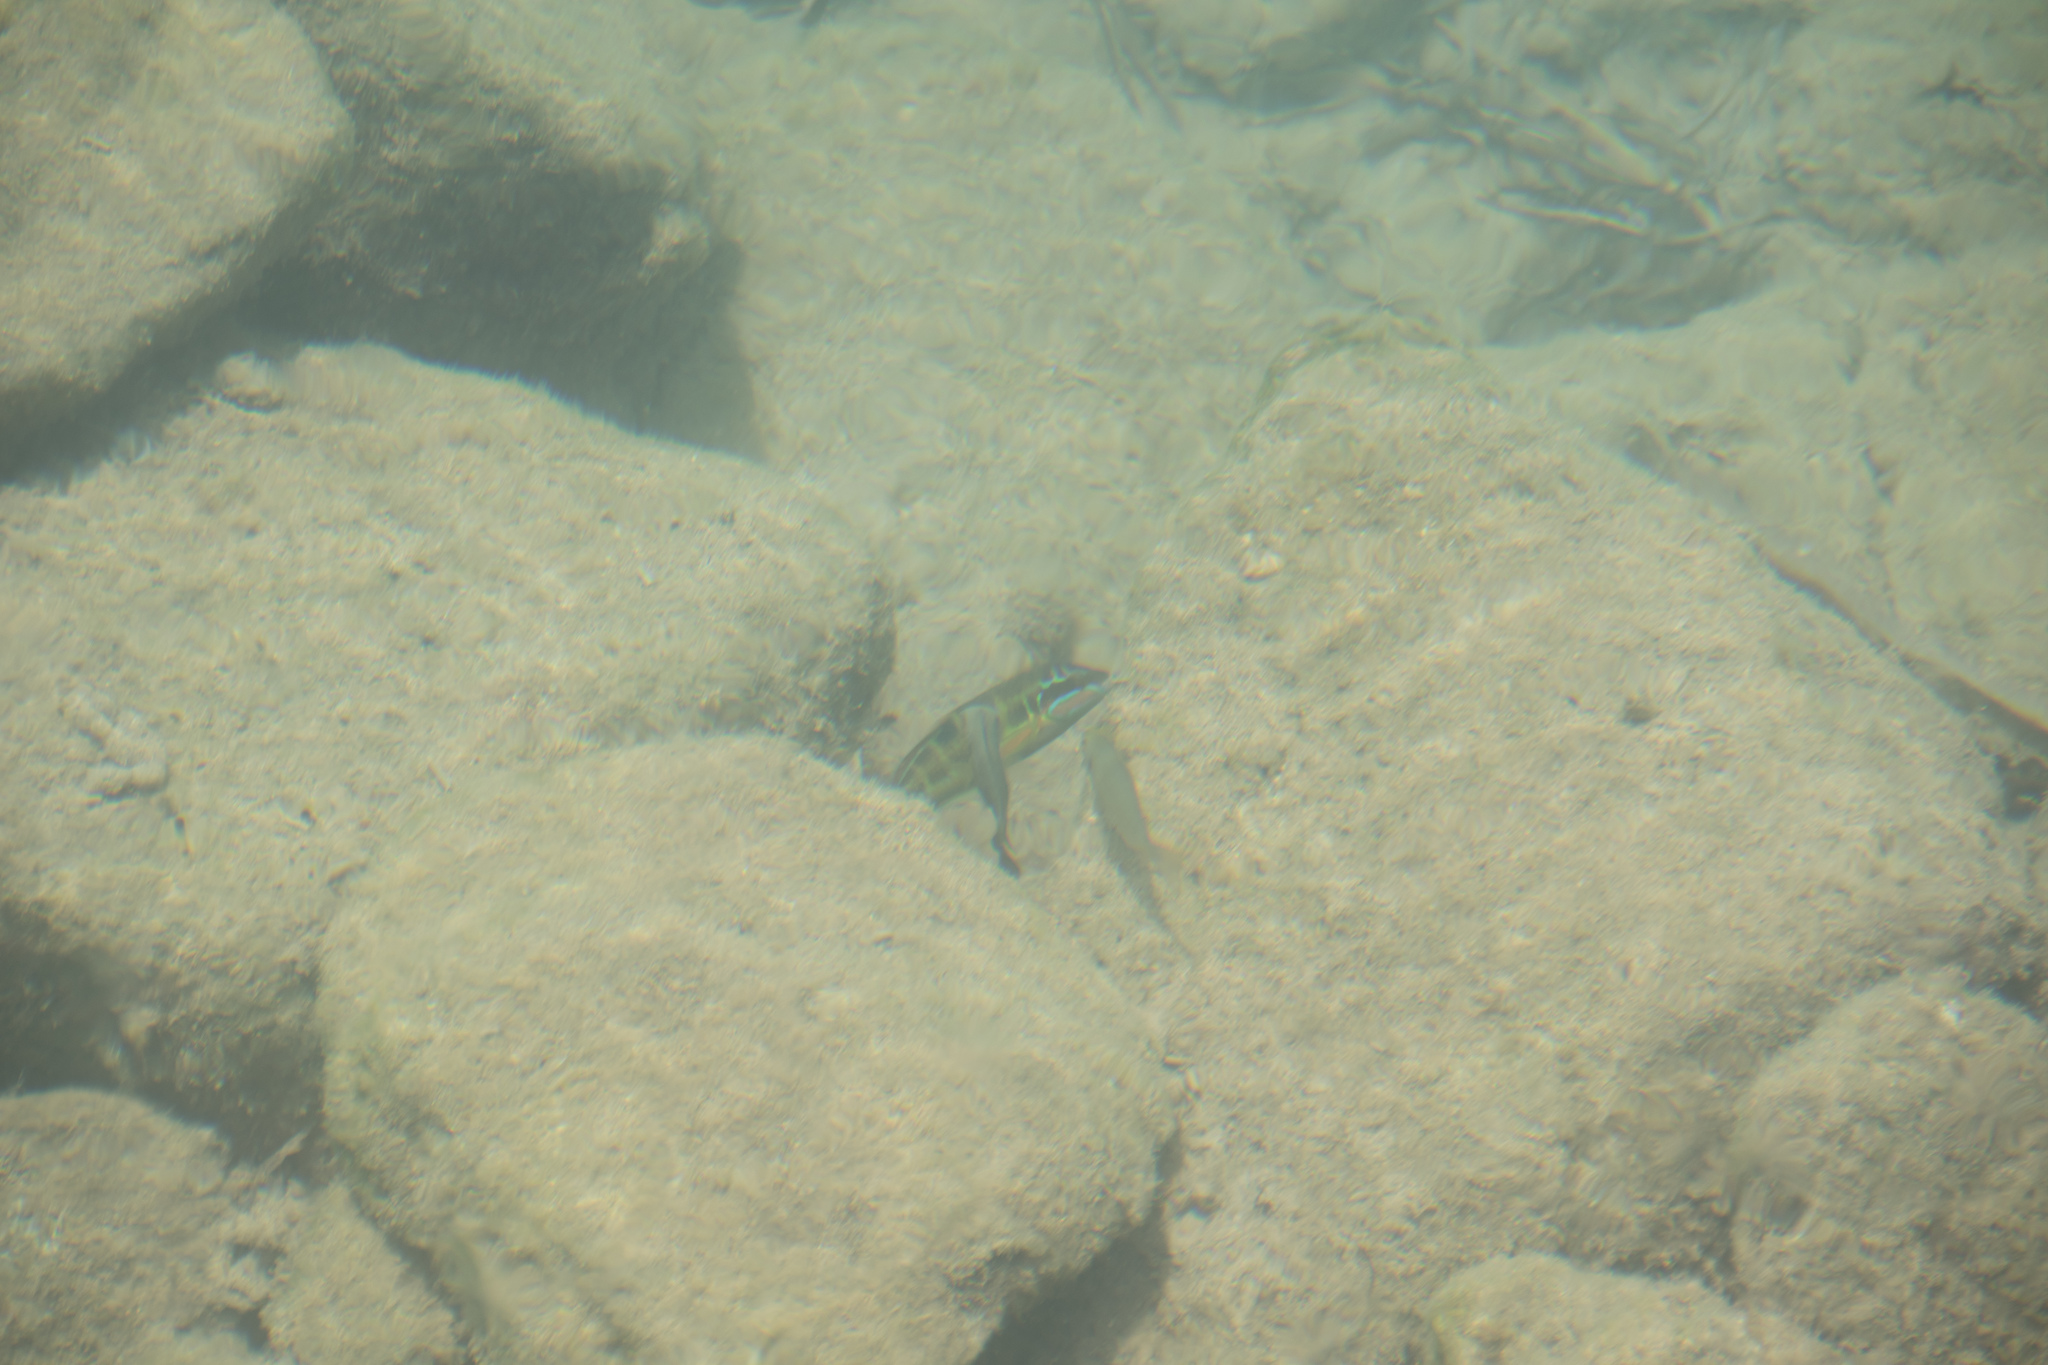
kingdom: Animalia
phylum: Chordata
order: Perciformes
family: Labridae
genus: Thalassoma
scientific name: Thalassoma pavo
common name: Ornate wrasse
